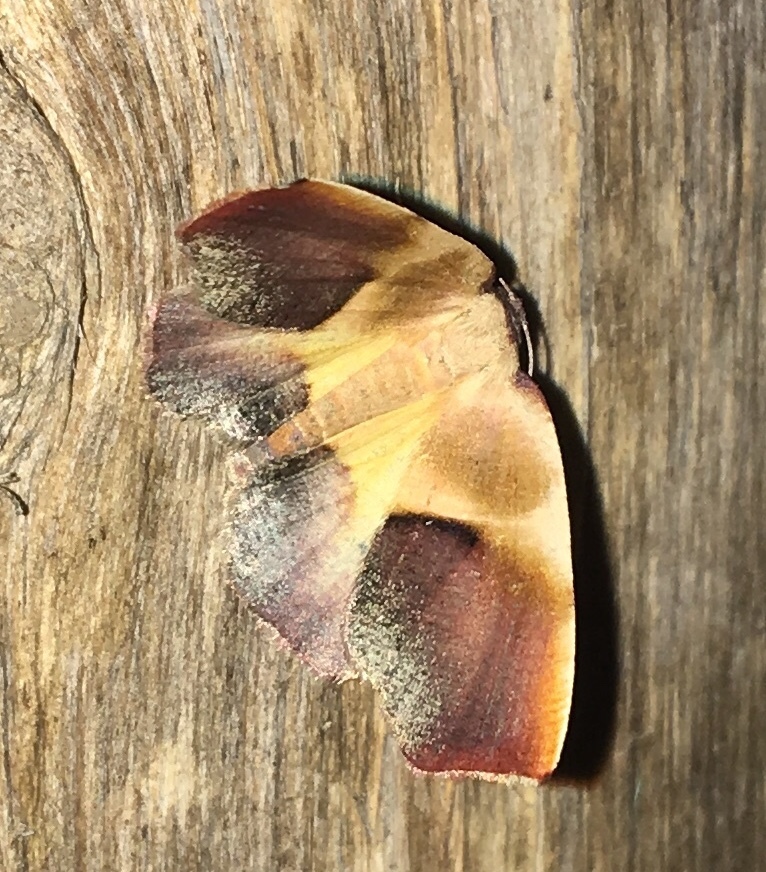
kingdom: Animalia
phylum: Arthropoda
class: Insecta
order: Lepidoptera
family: Geometridae
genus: Plagodis
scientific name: Plagodis kuetzingi
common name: Purple plagodis
